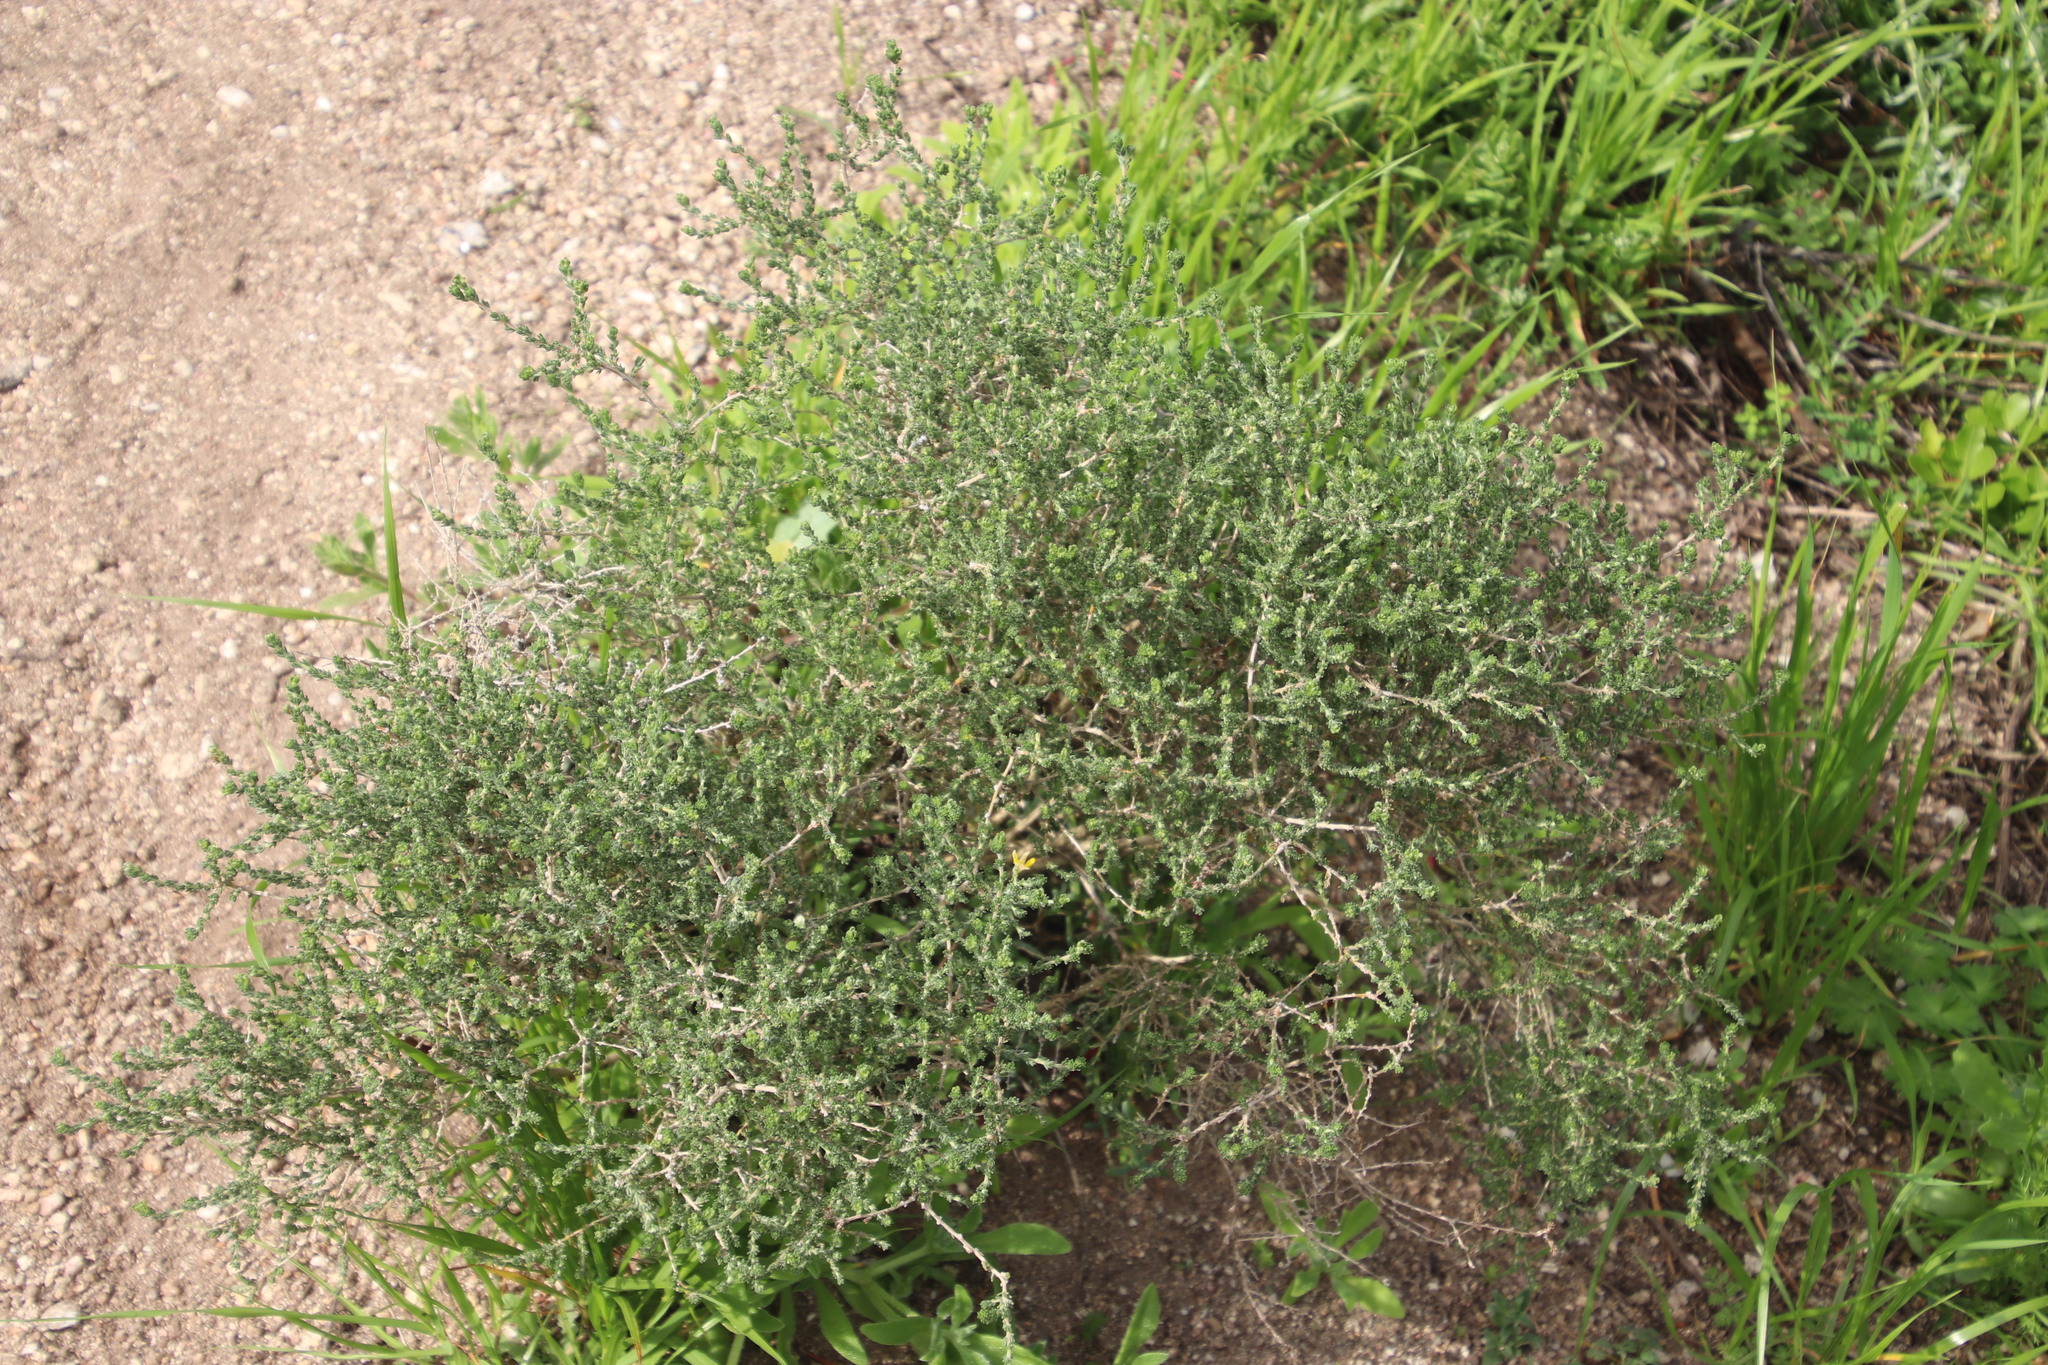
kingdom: Plantae
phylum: Tracheophyta
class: Magnoliopsida
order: Fabales
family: Fabaceae
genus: Aspalathus
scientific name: Aspalathus cymbiformis
